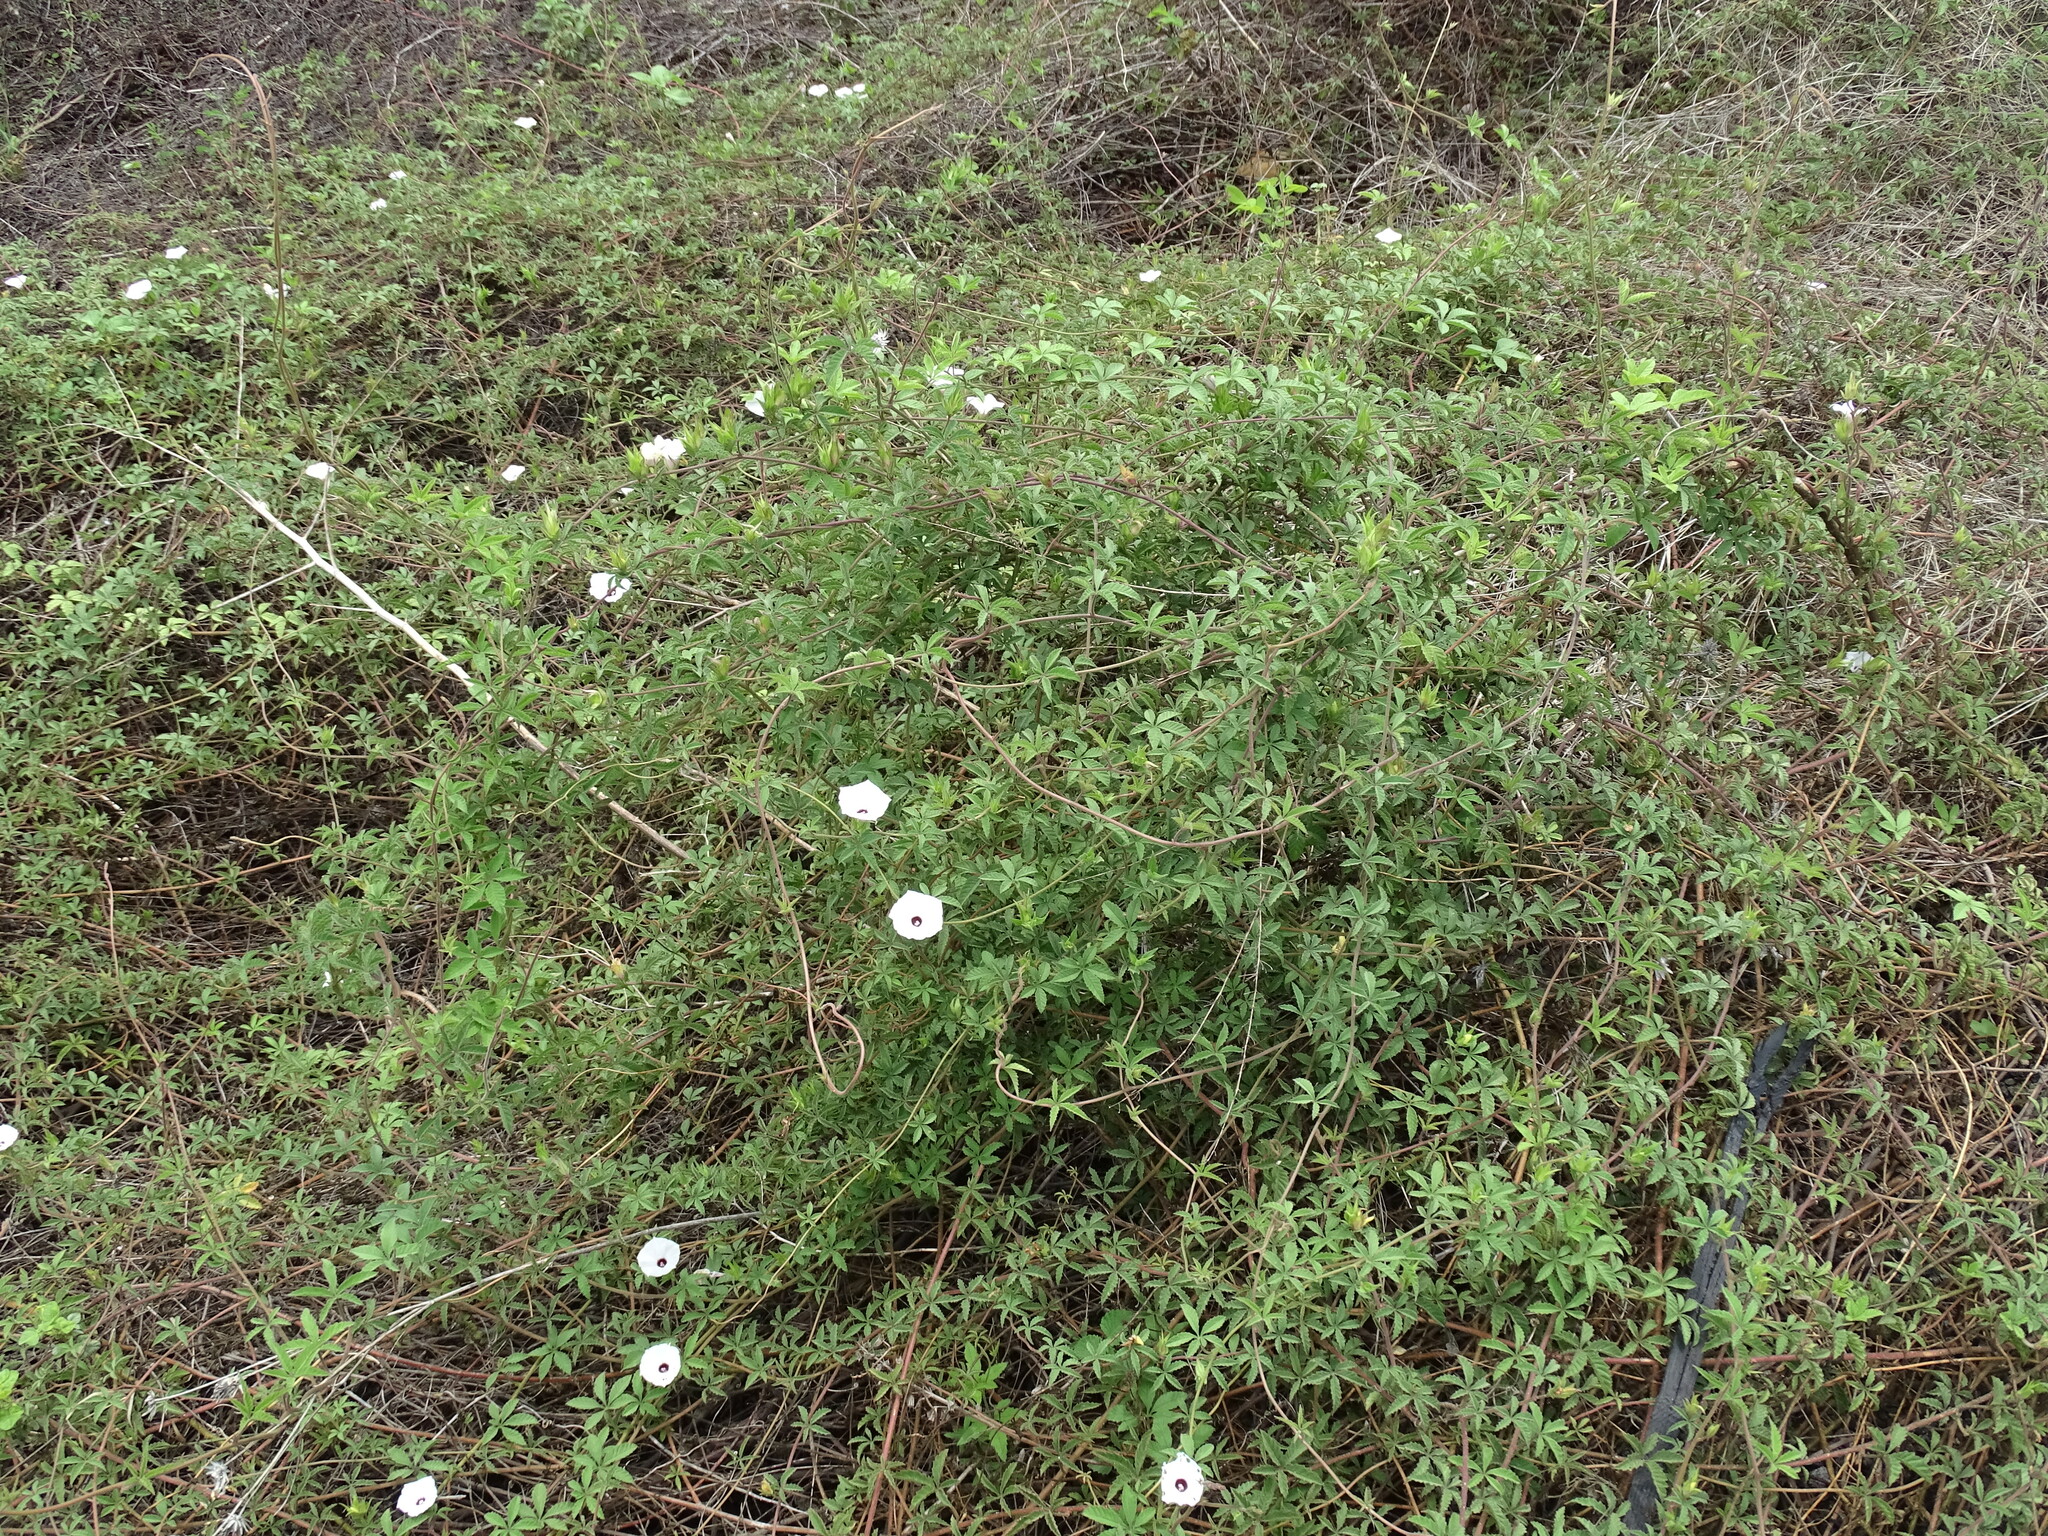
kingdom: Plantae
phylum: Tracheophyta
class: Magnoliopsida
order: Solanales
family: Convolvulaceae
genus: Distimake
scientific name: Distimake lobulibracteatus
